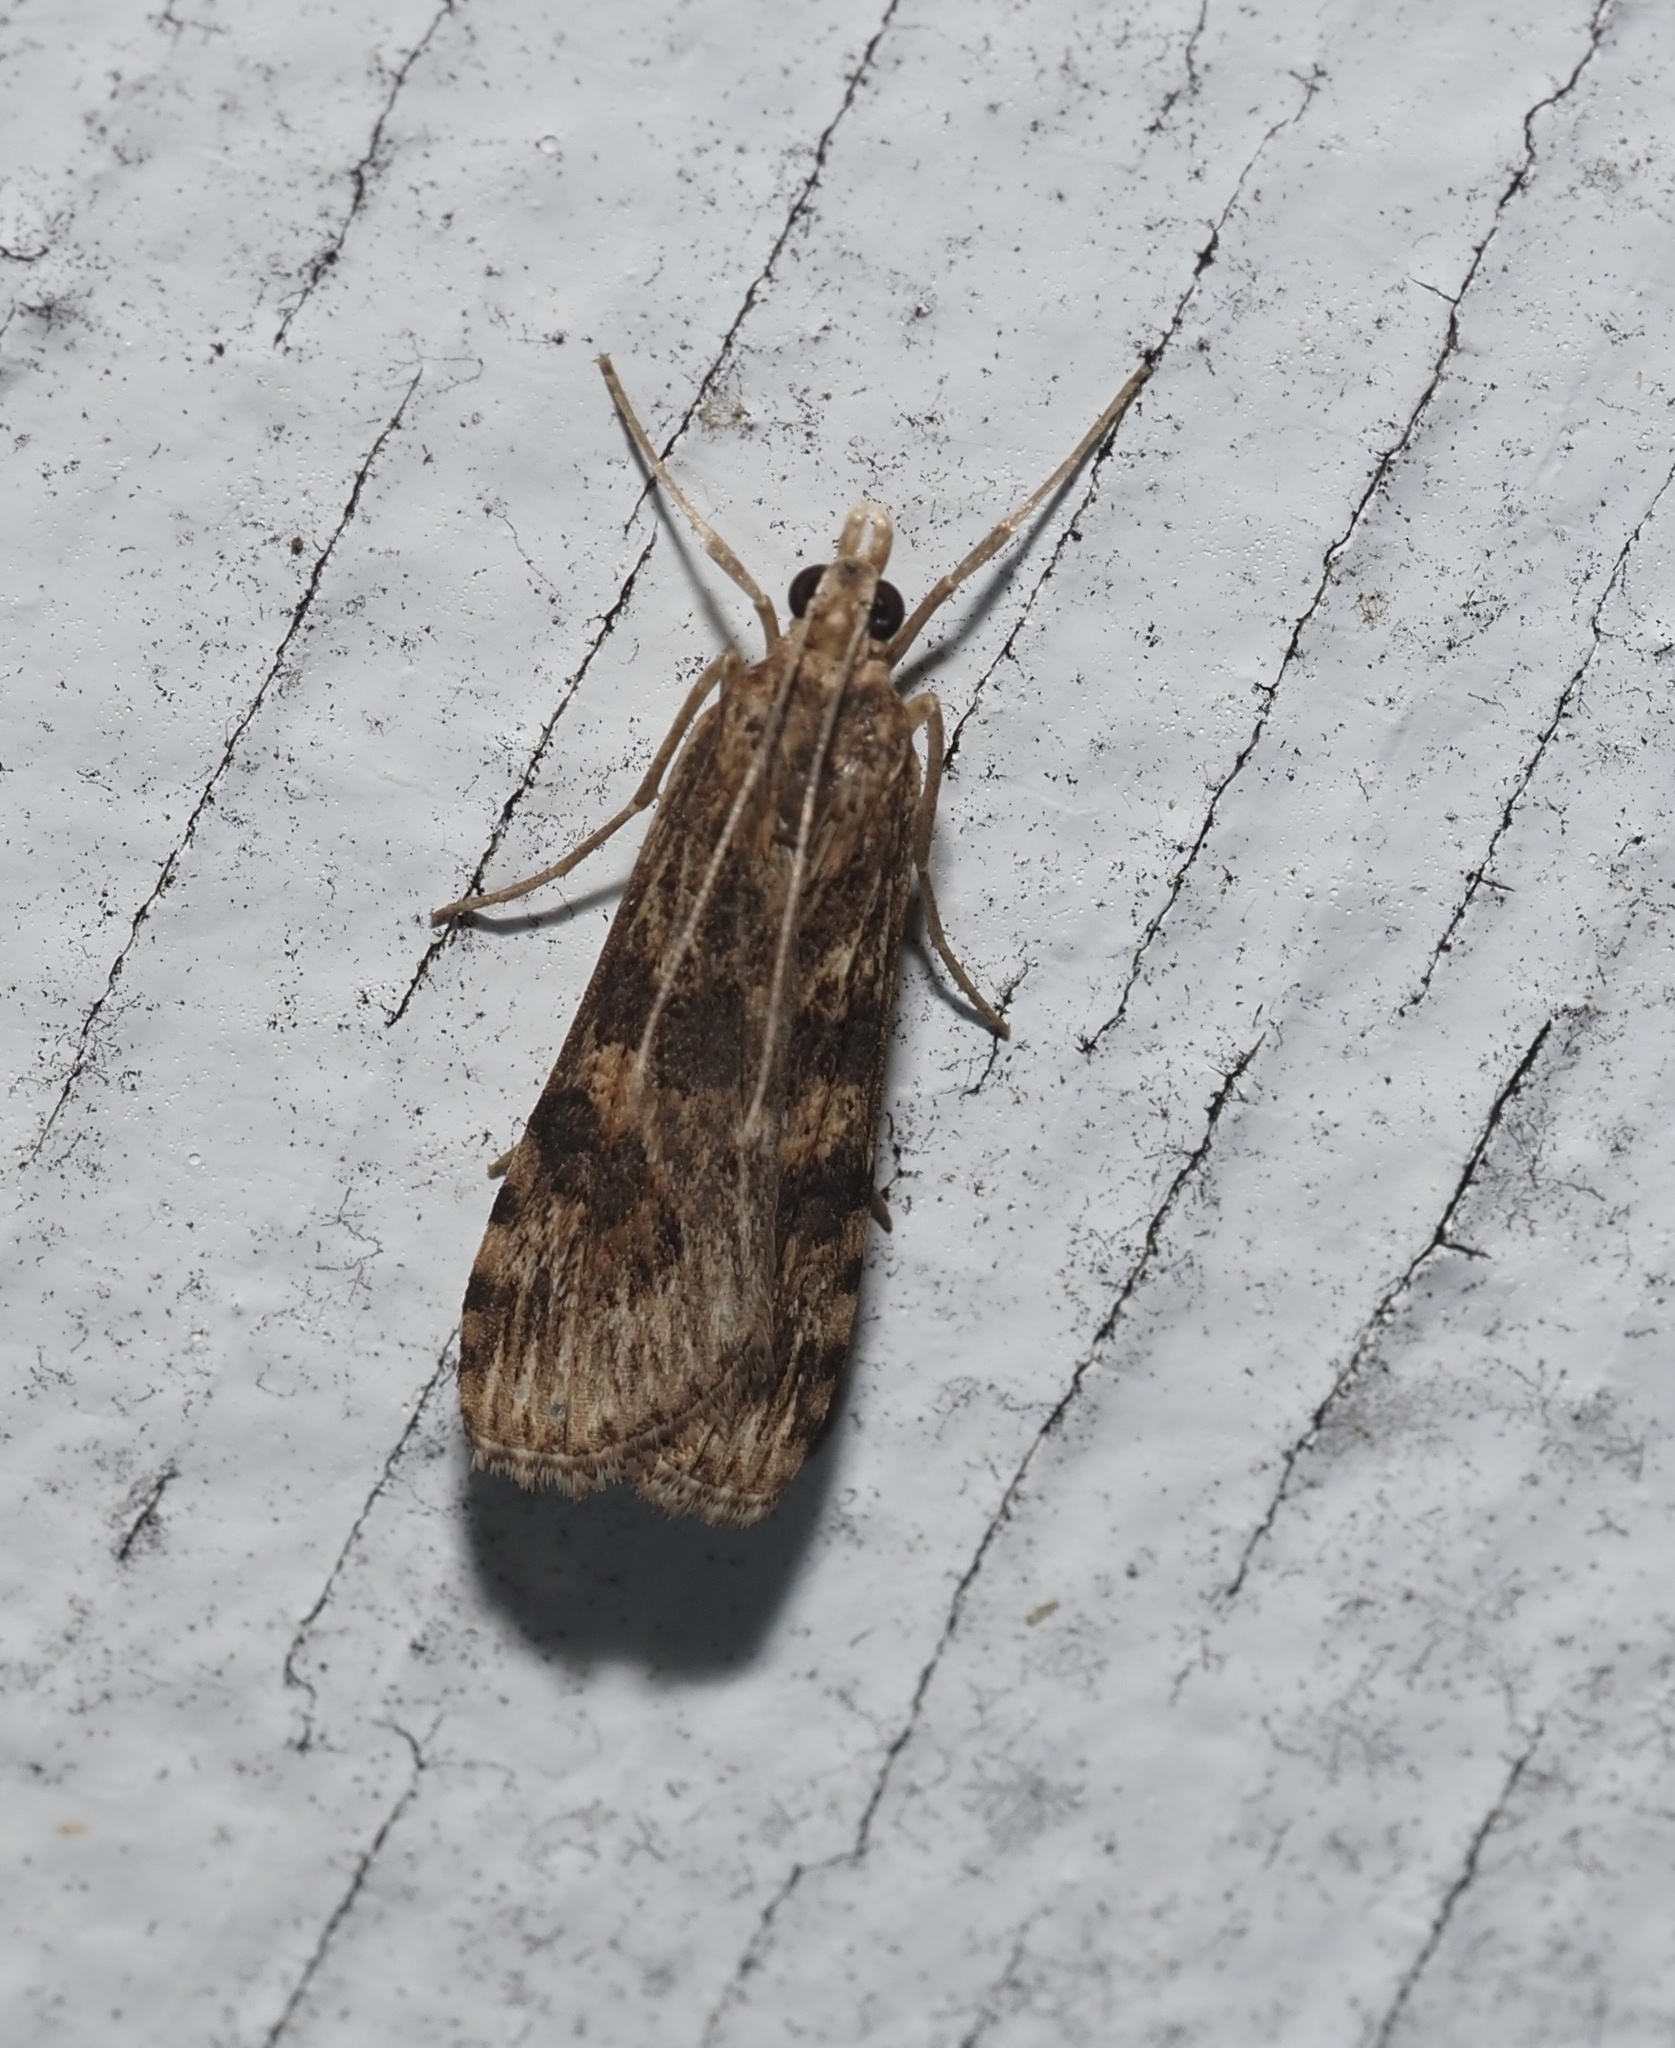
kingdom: Animalia
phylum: Arthropoda
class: Insecta
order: Lepidoptera
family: Crambidae
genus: Nomophila
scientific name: Nomophila nearctica
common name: American rush veneer
